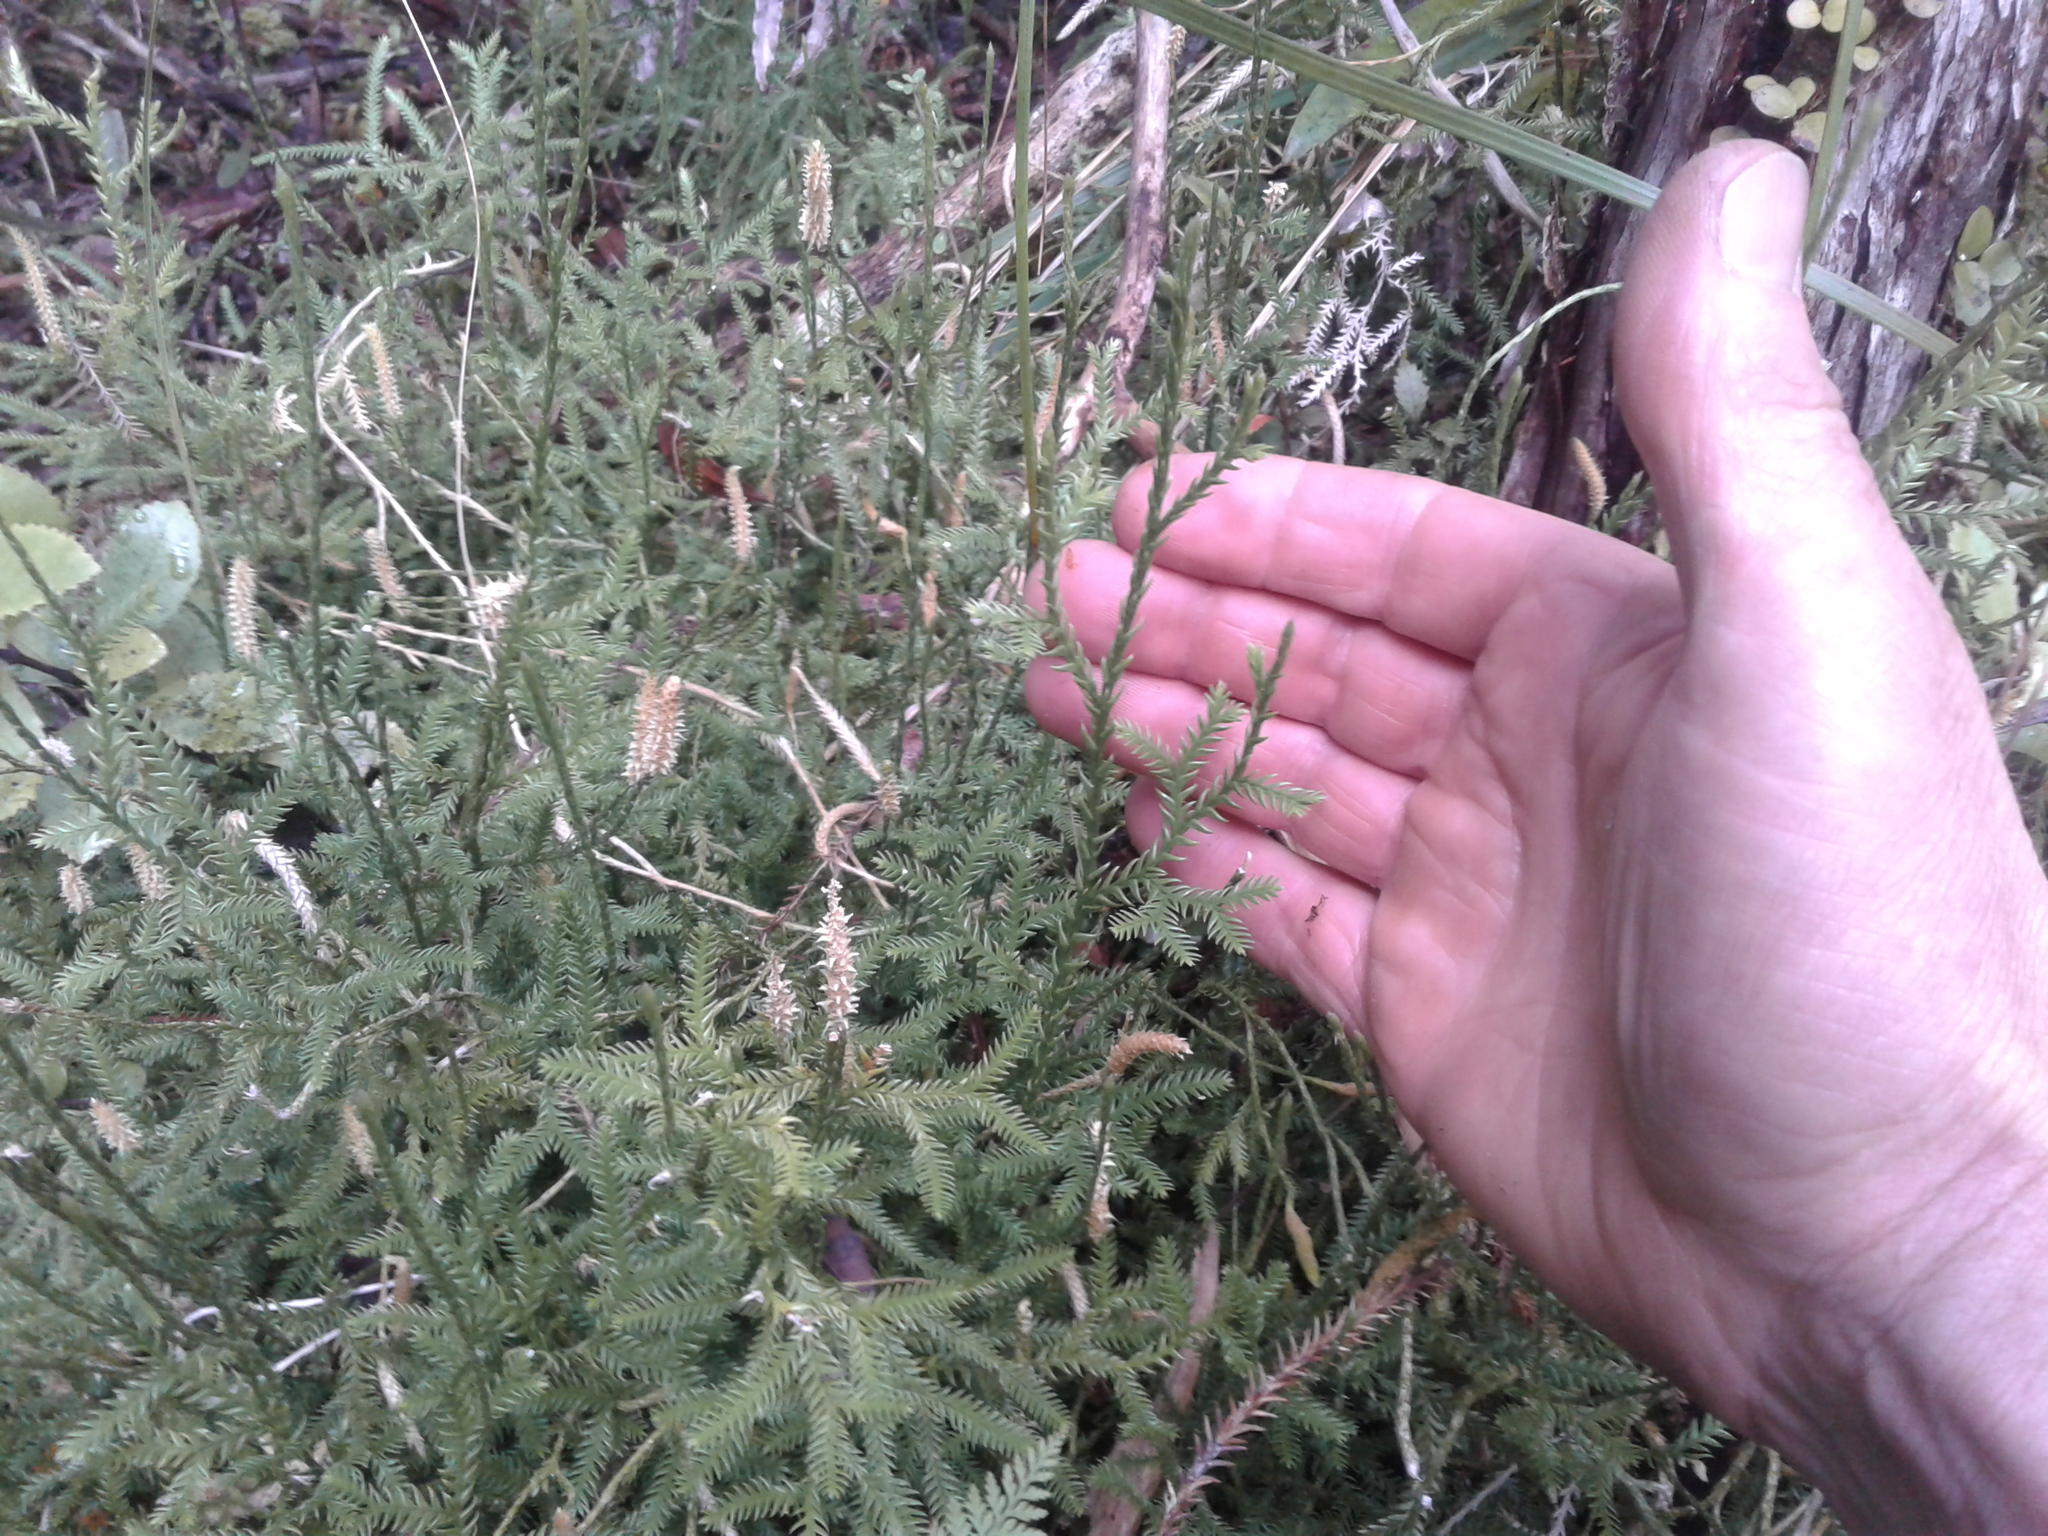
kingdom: Plantae
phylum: Tracheophyta
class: Lycopodiopsida
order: Lycopodiales
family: Lycopodiaceae
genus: Diphasium
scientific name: Diphasium scariosum
